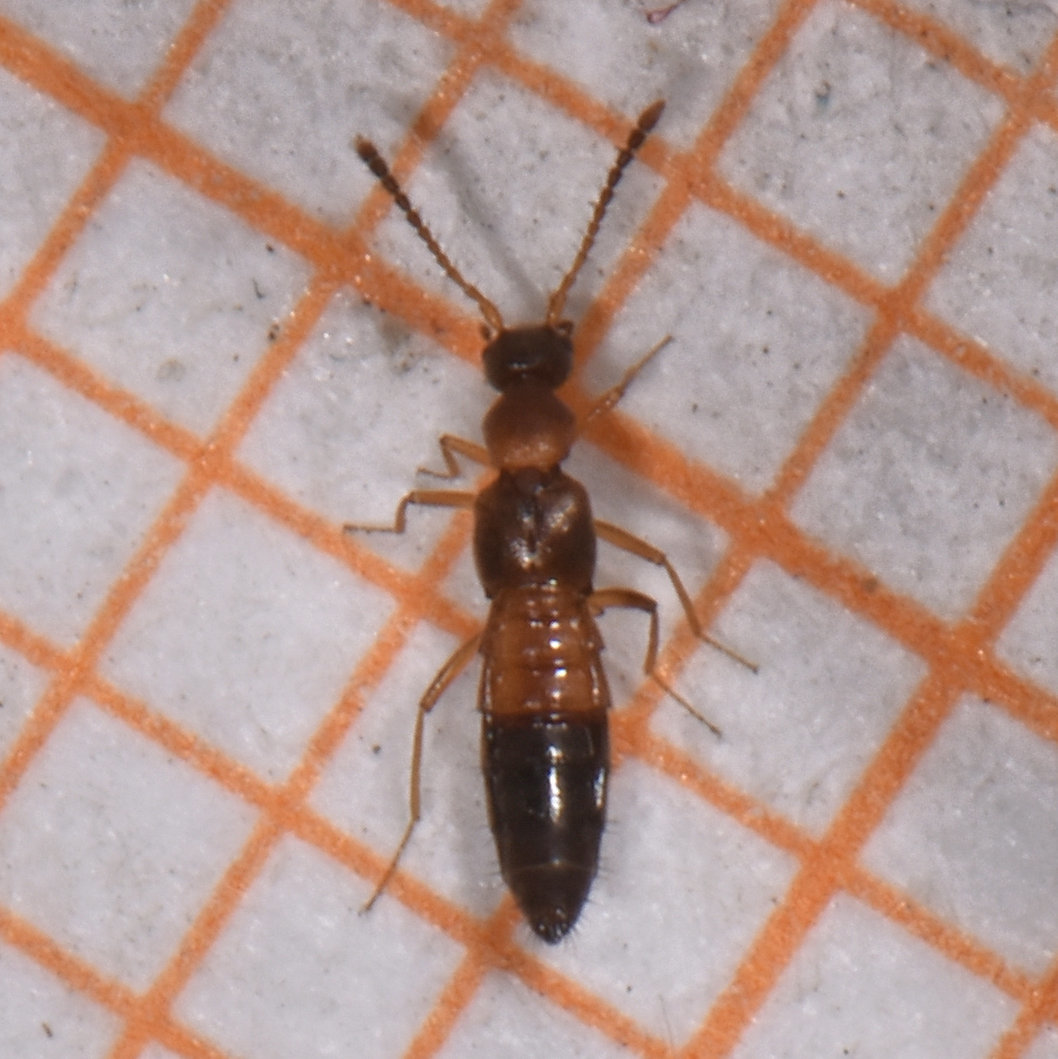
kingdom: Animalia
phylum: Arthropoda
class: Insecta
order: Coleoptera
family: Staphylinidae
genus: Meronera
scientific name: Meronera venustula
